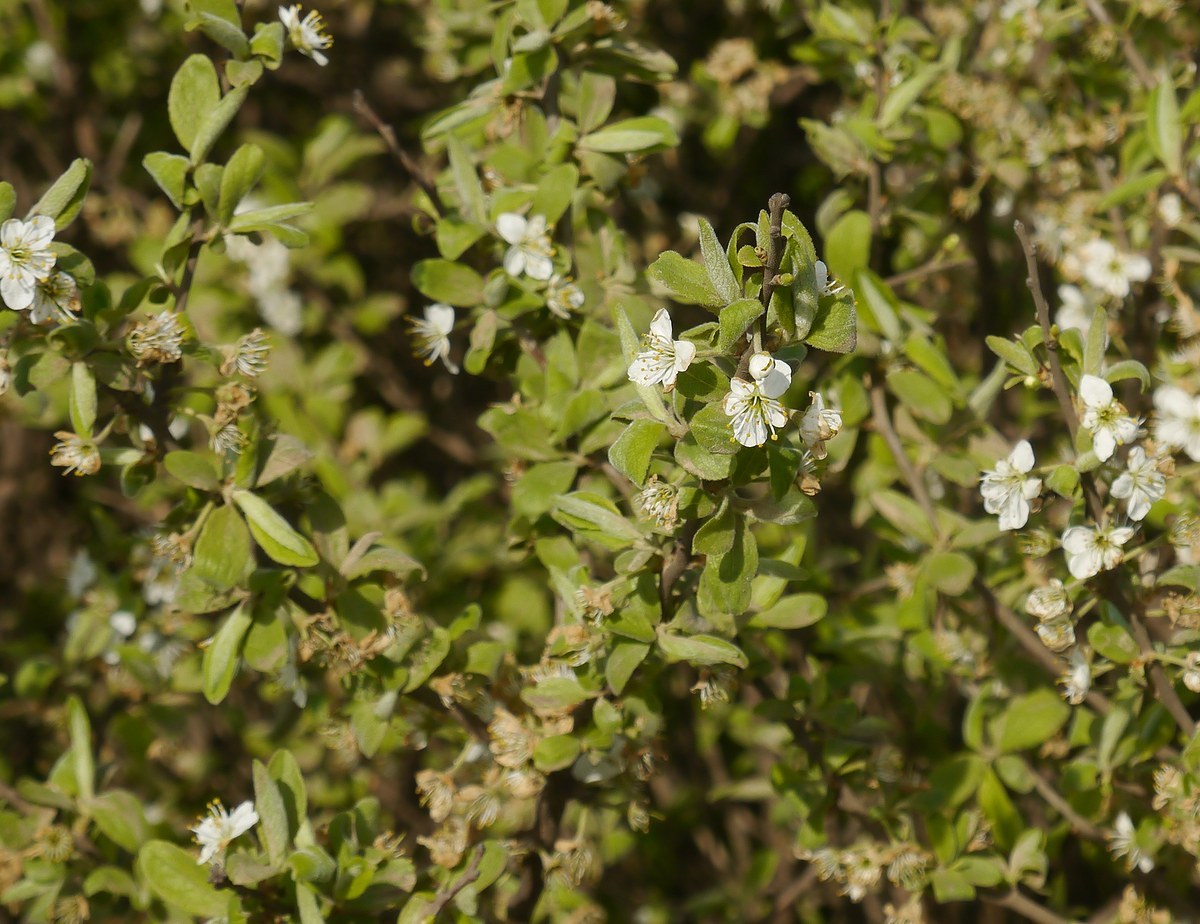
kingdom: Plantae
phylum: Tracheophyta
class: Magnoliopsida
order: Rosales
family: Rosaceae
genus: Prunus
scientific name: Prunus spinosa
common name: Blackthorn
